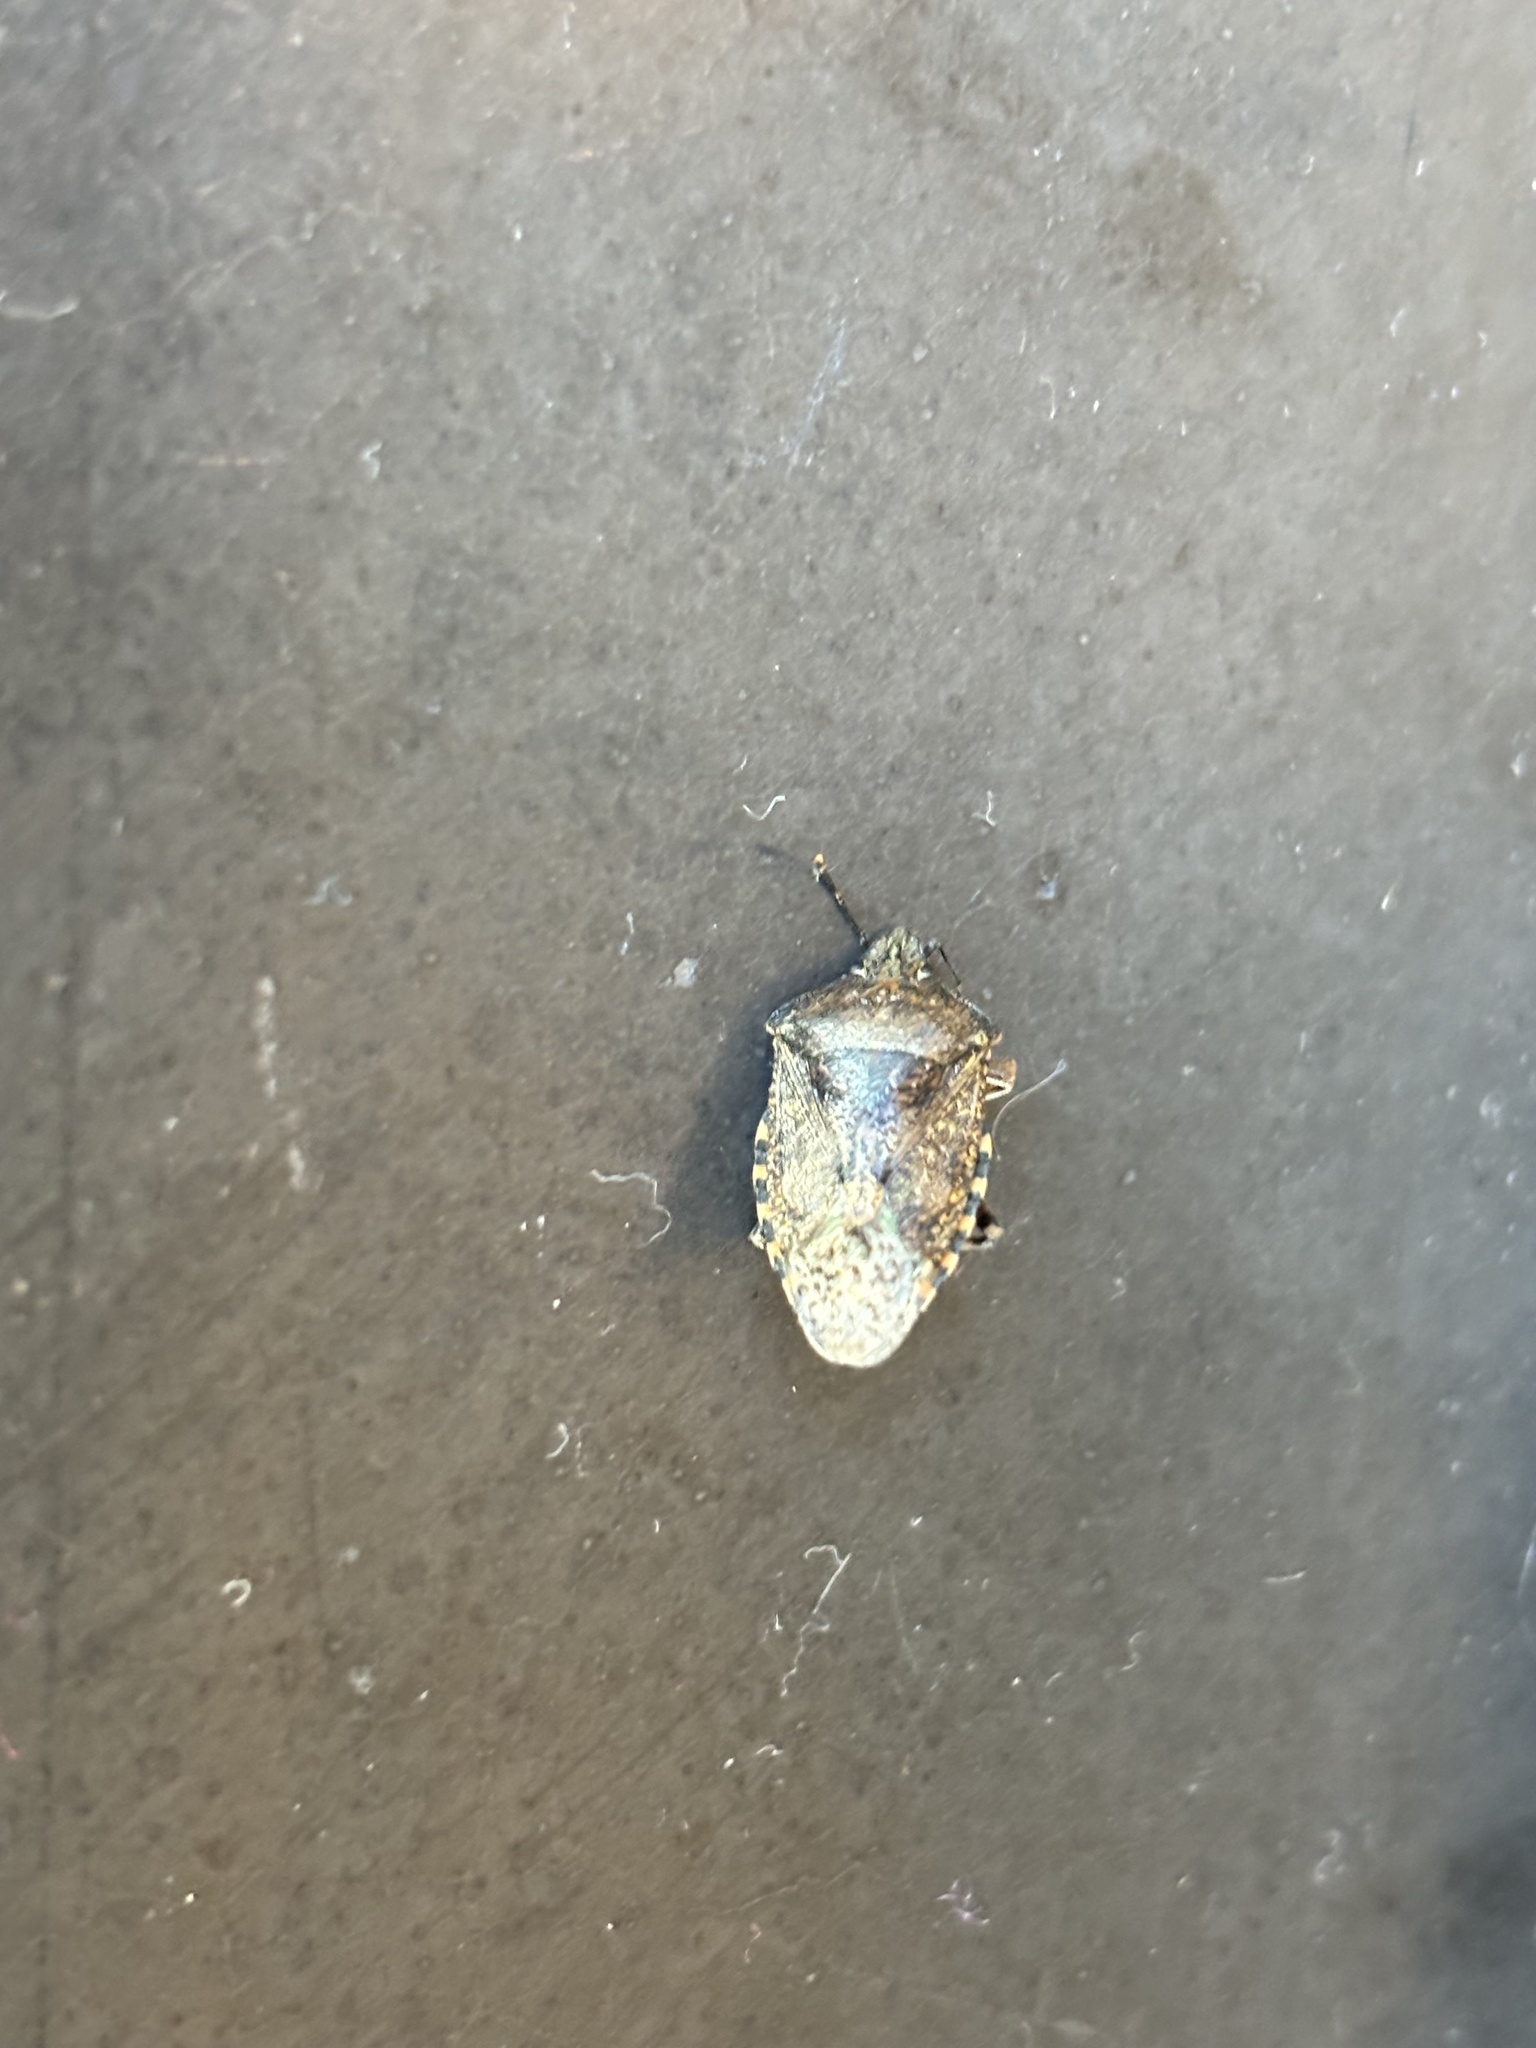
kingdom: Animalia
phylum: Arthropoda
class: Insecta
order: Hemiptera
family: Pentatomidae
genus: Rhaphigaster
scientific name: Rhaphigaster nebulosa
